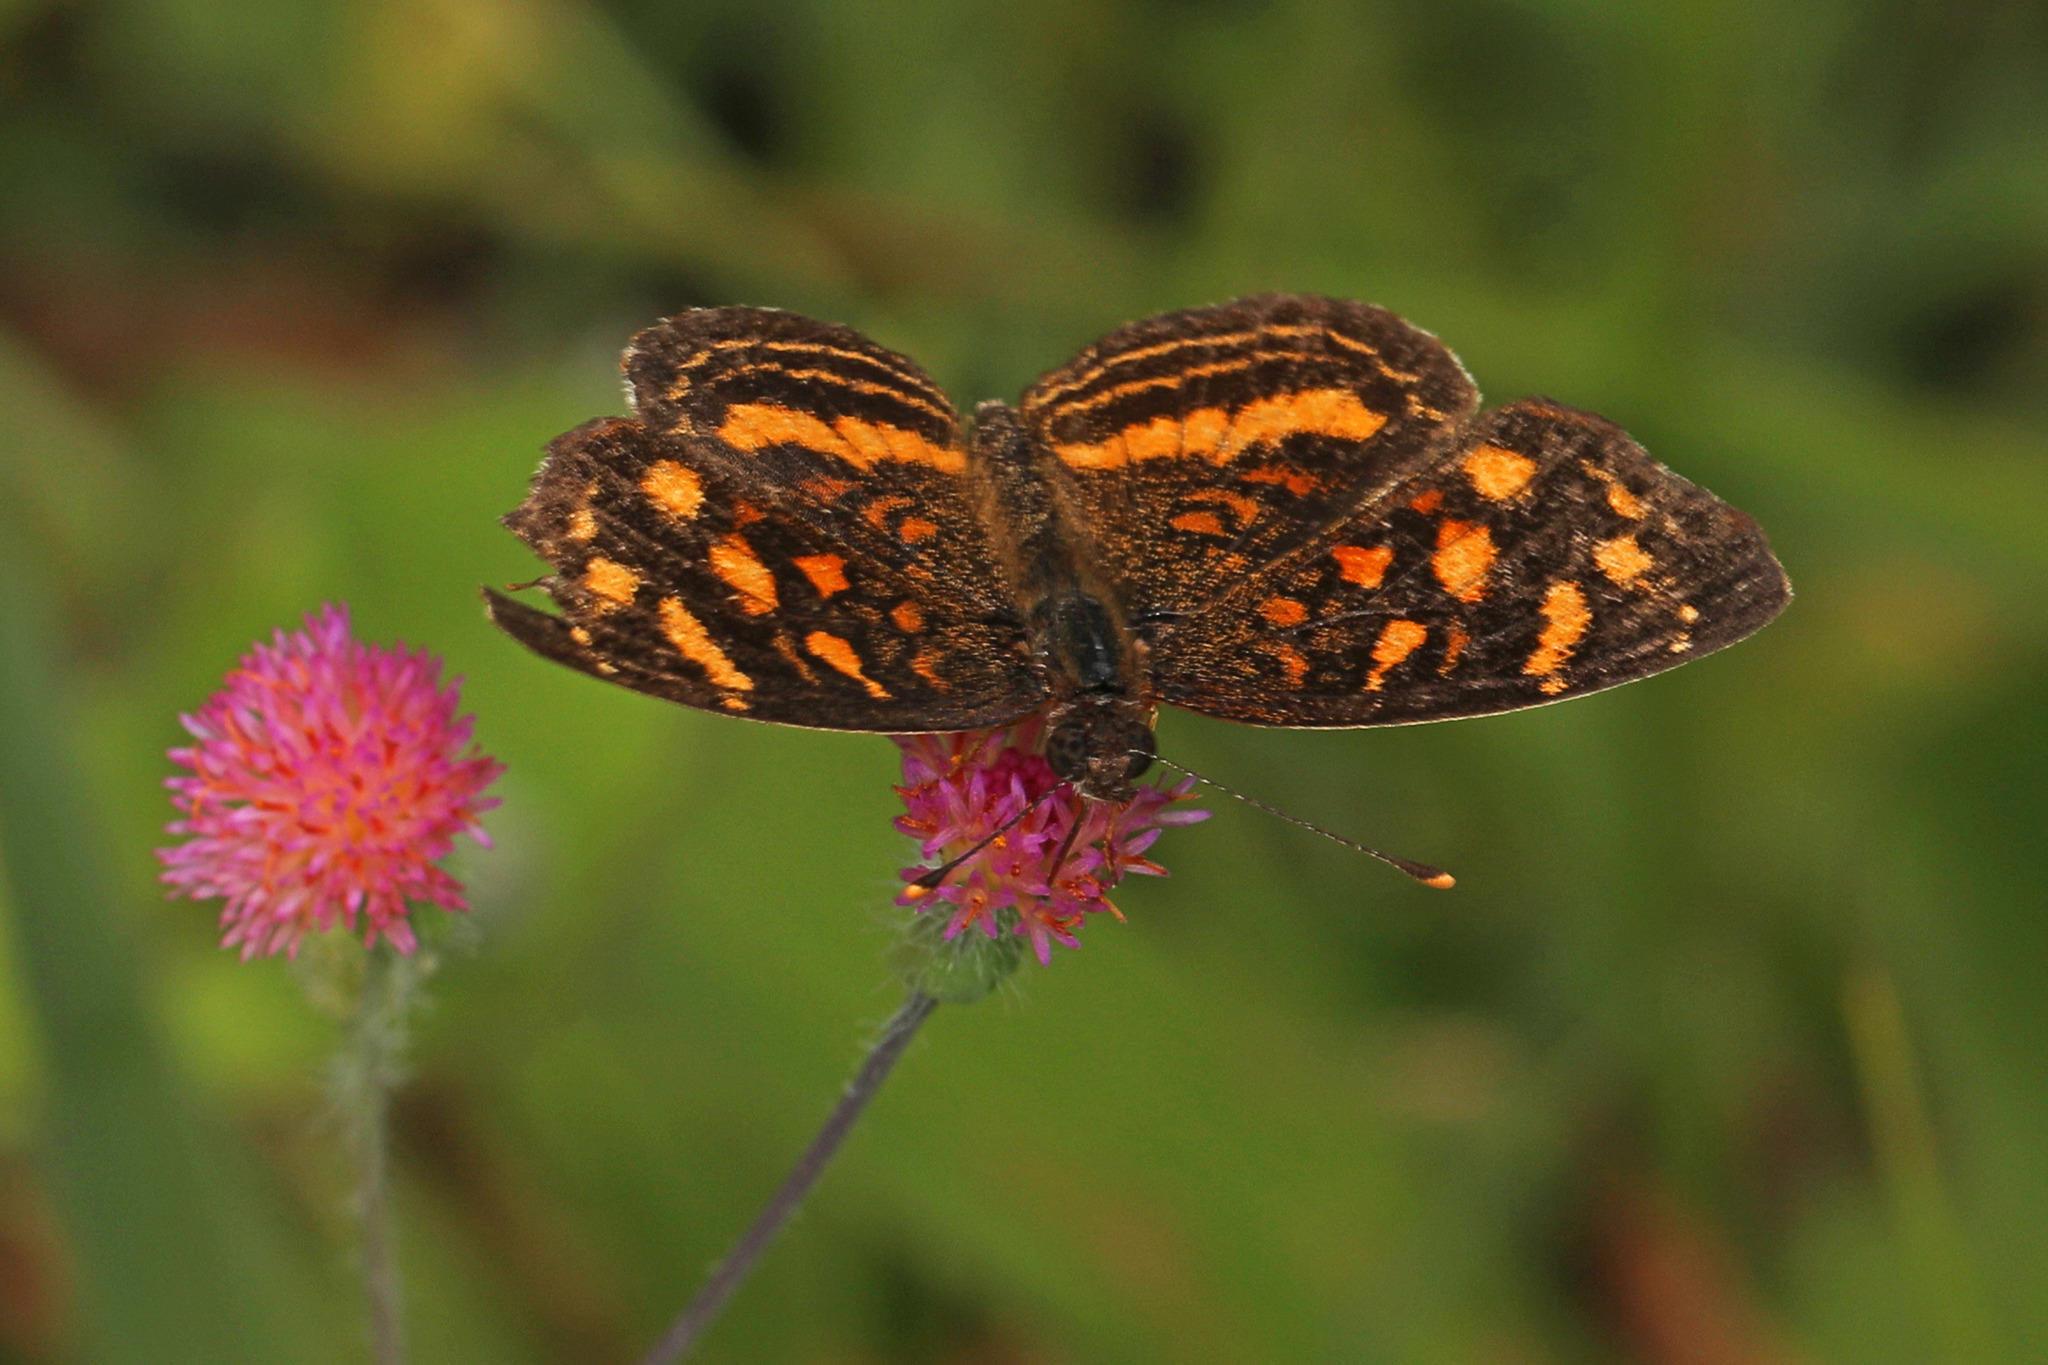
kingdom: Animalia
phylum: Arthropoda
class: Insecta
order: Lepidoptera
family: Nymphalidae
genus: Anthanassa
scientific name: Anthanassa drusilla
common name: Orange-patched crescent
